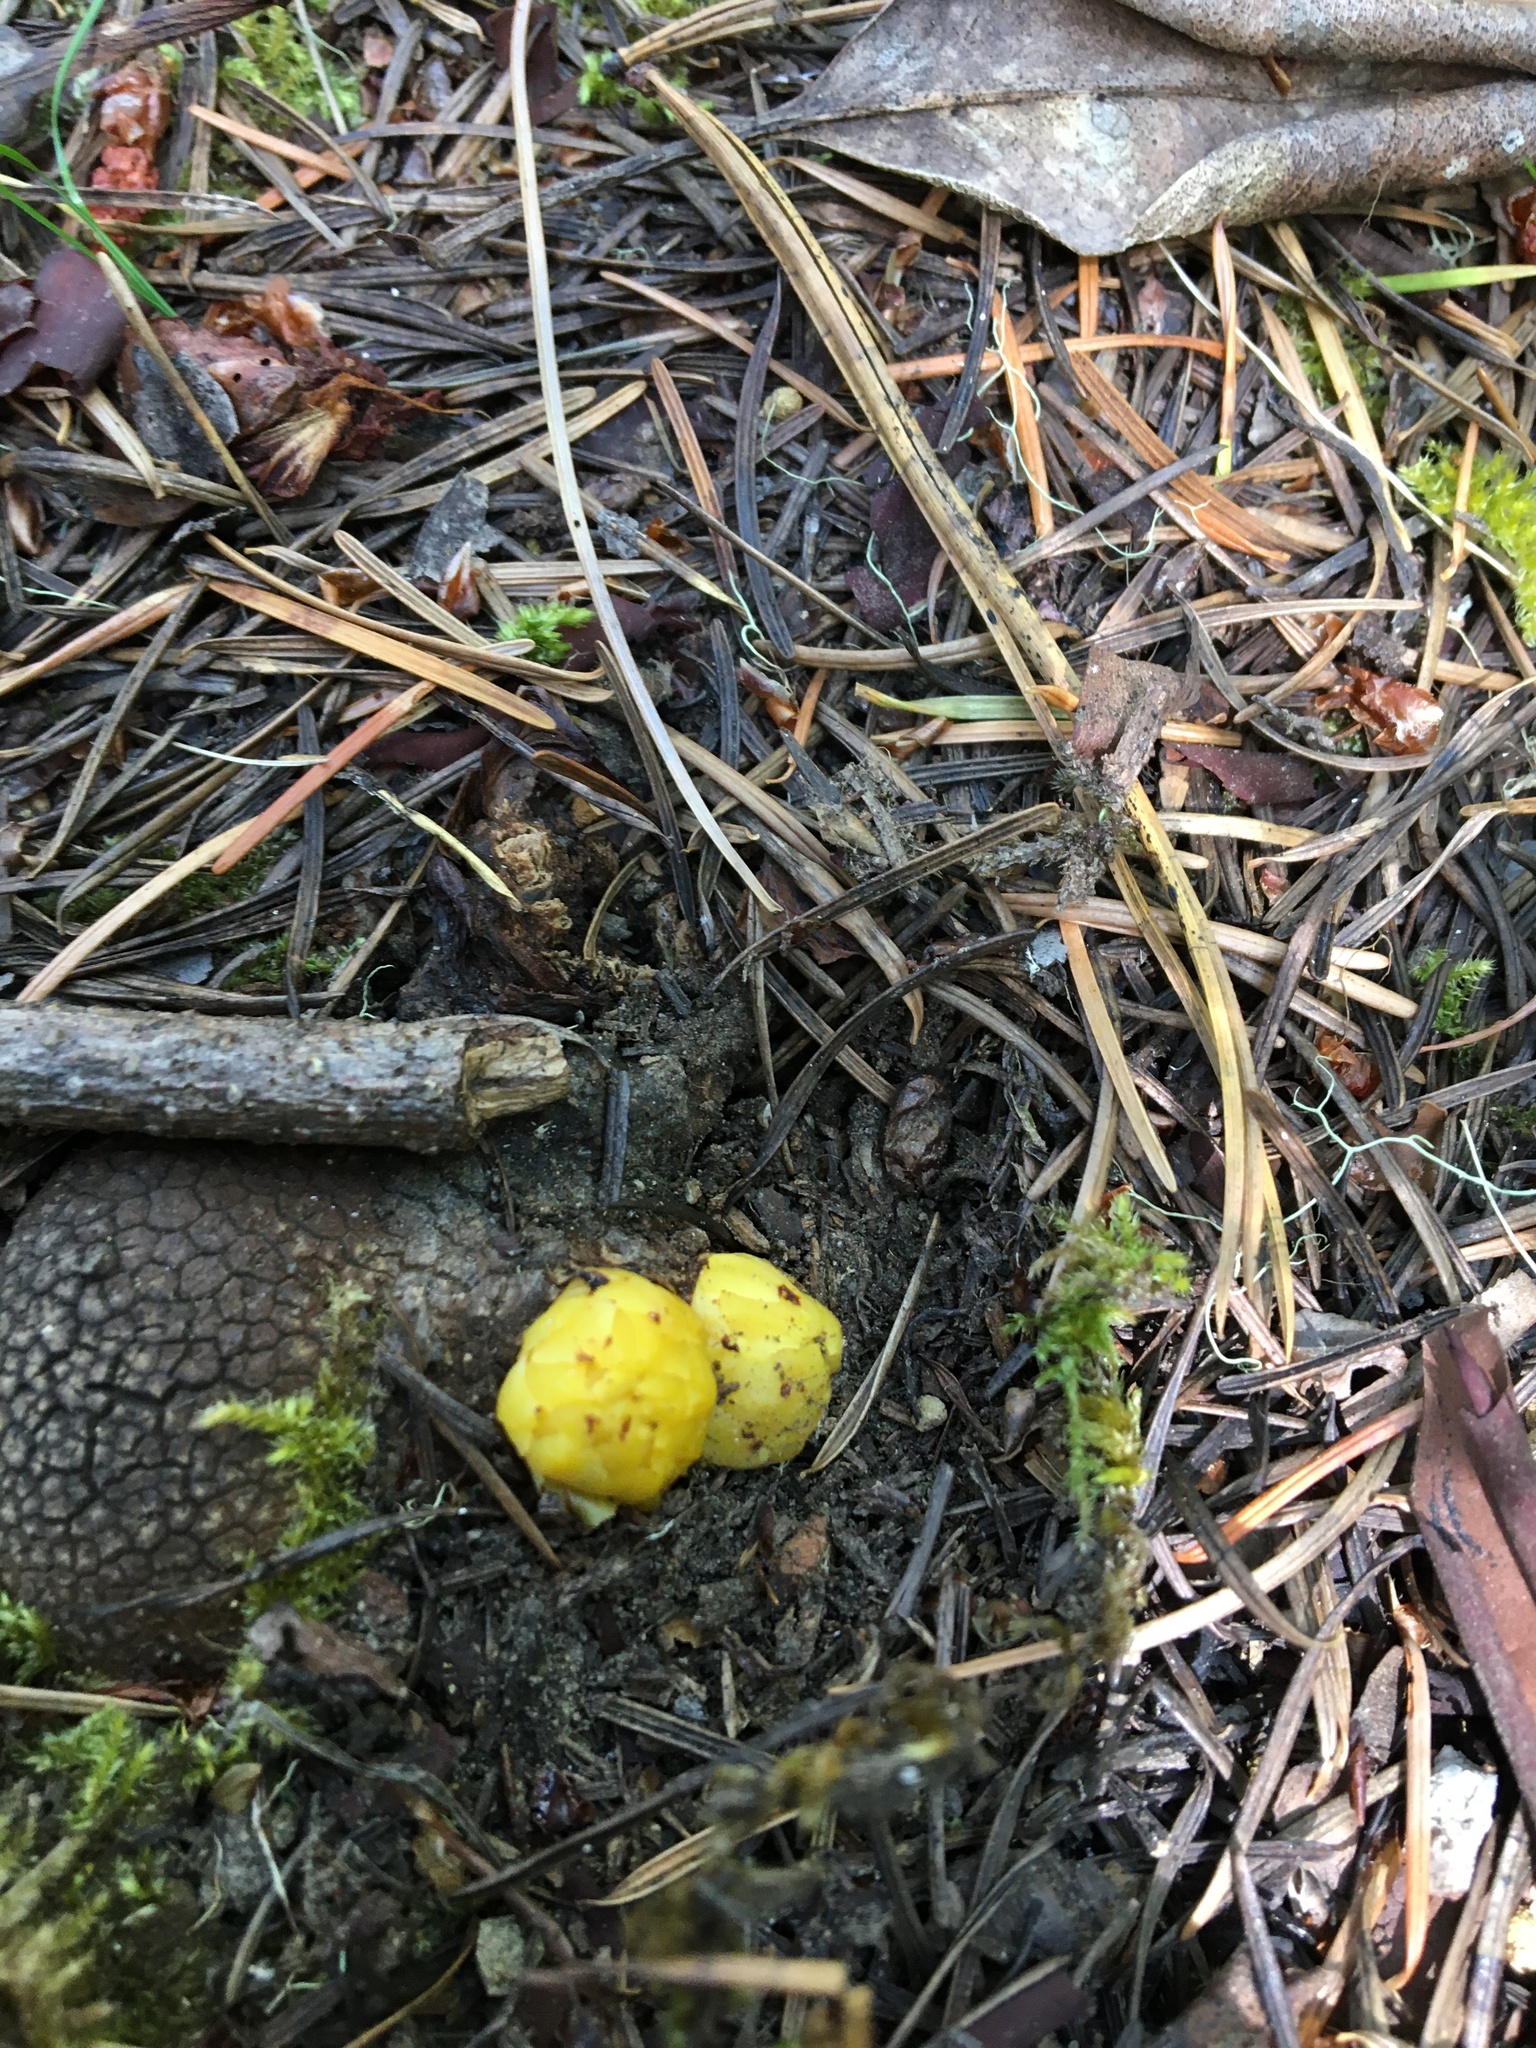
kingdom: Plantae
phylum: Tracheophyta
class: Magnoliopsida
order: Ericales
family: Ericaceae
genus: Hemitomes
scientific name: Hemitomes congestum
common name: Cone plant
